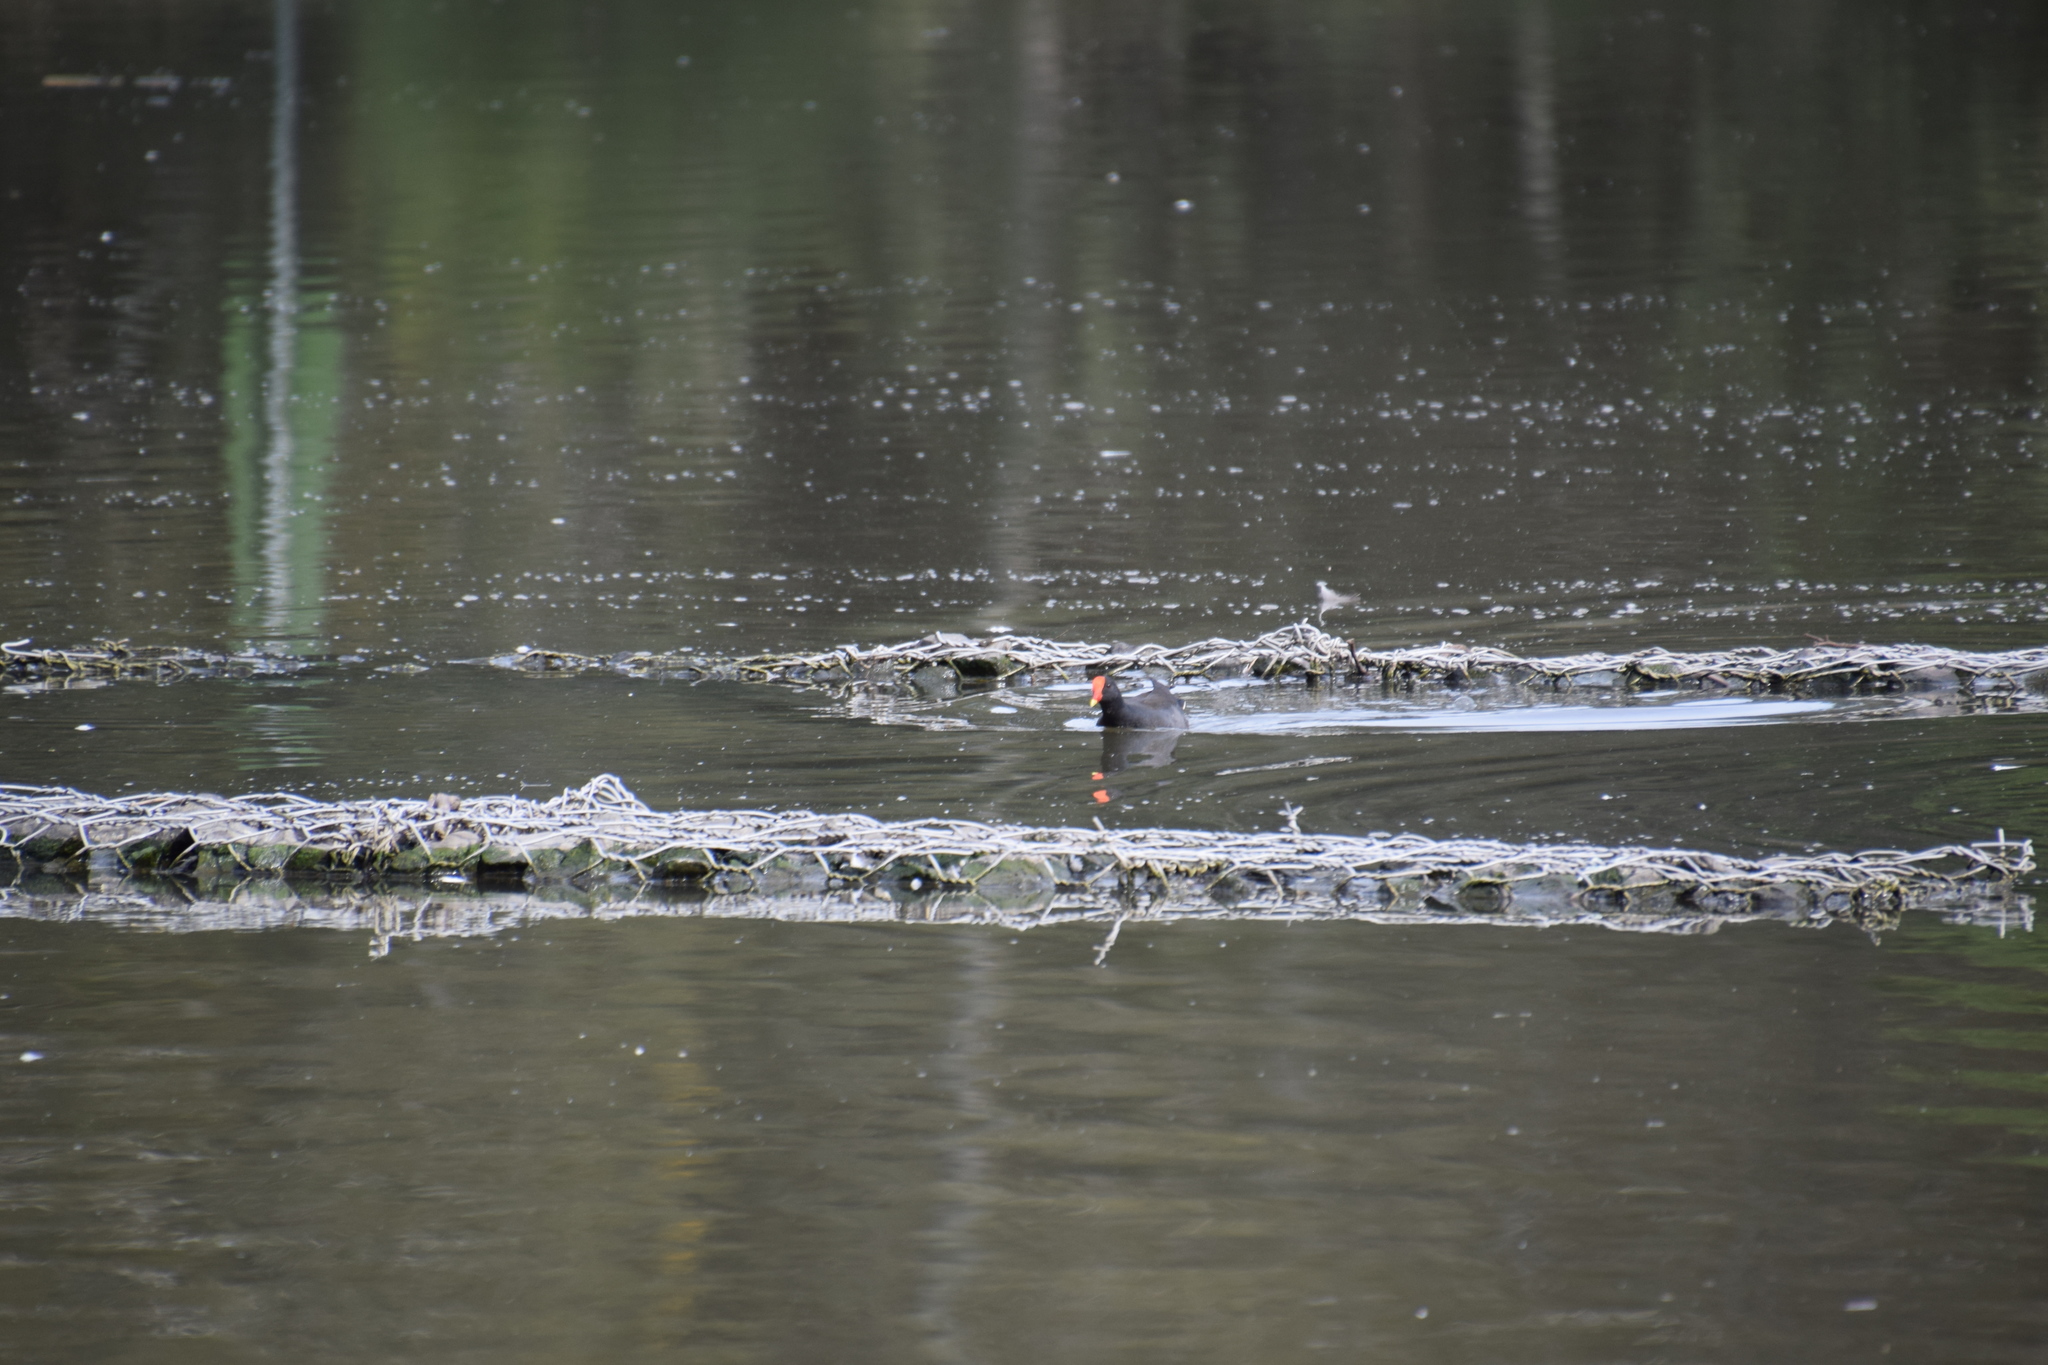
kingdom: Animalia
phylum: Chordata
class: Aves
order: Gruiformes
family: Rallidae
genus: Gallinula
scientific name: Gallinula tenebrosa
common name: Dusky moorhen
